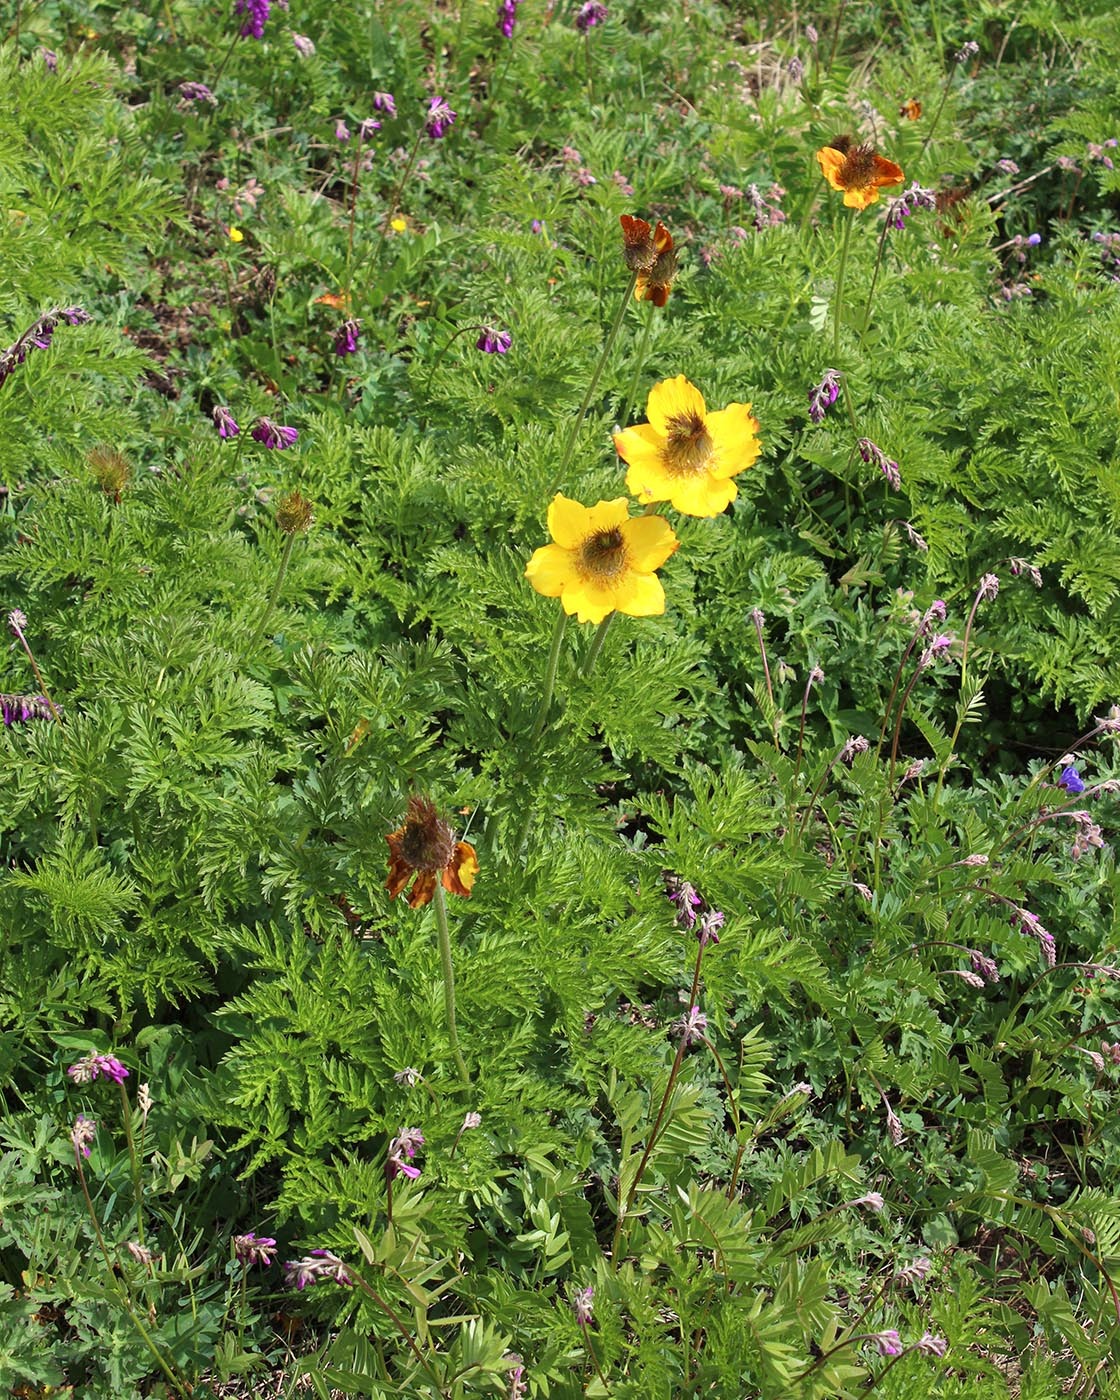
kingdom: Plantae
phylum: Tracheophyta
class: Magnoliopsida
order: Ranunculales
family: Ranunculaceae
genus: Pulsatilla
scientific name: Pulsatilla aurea
